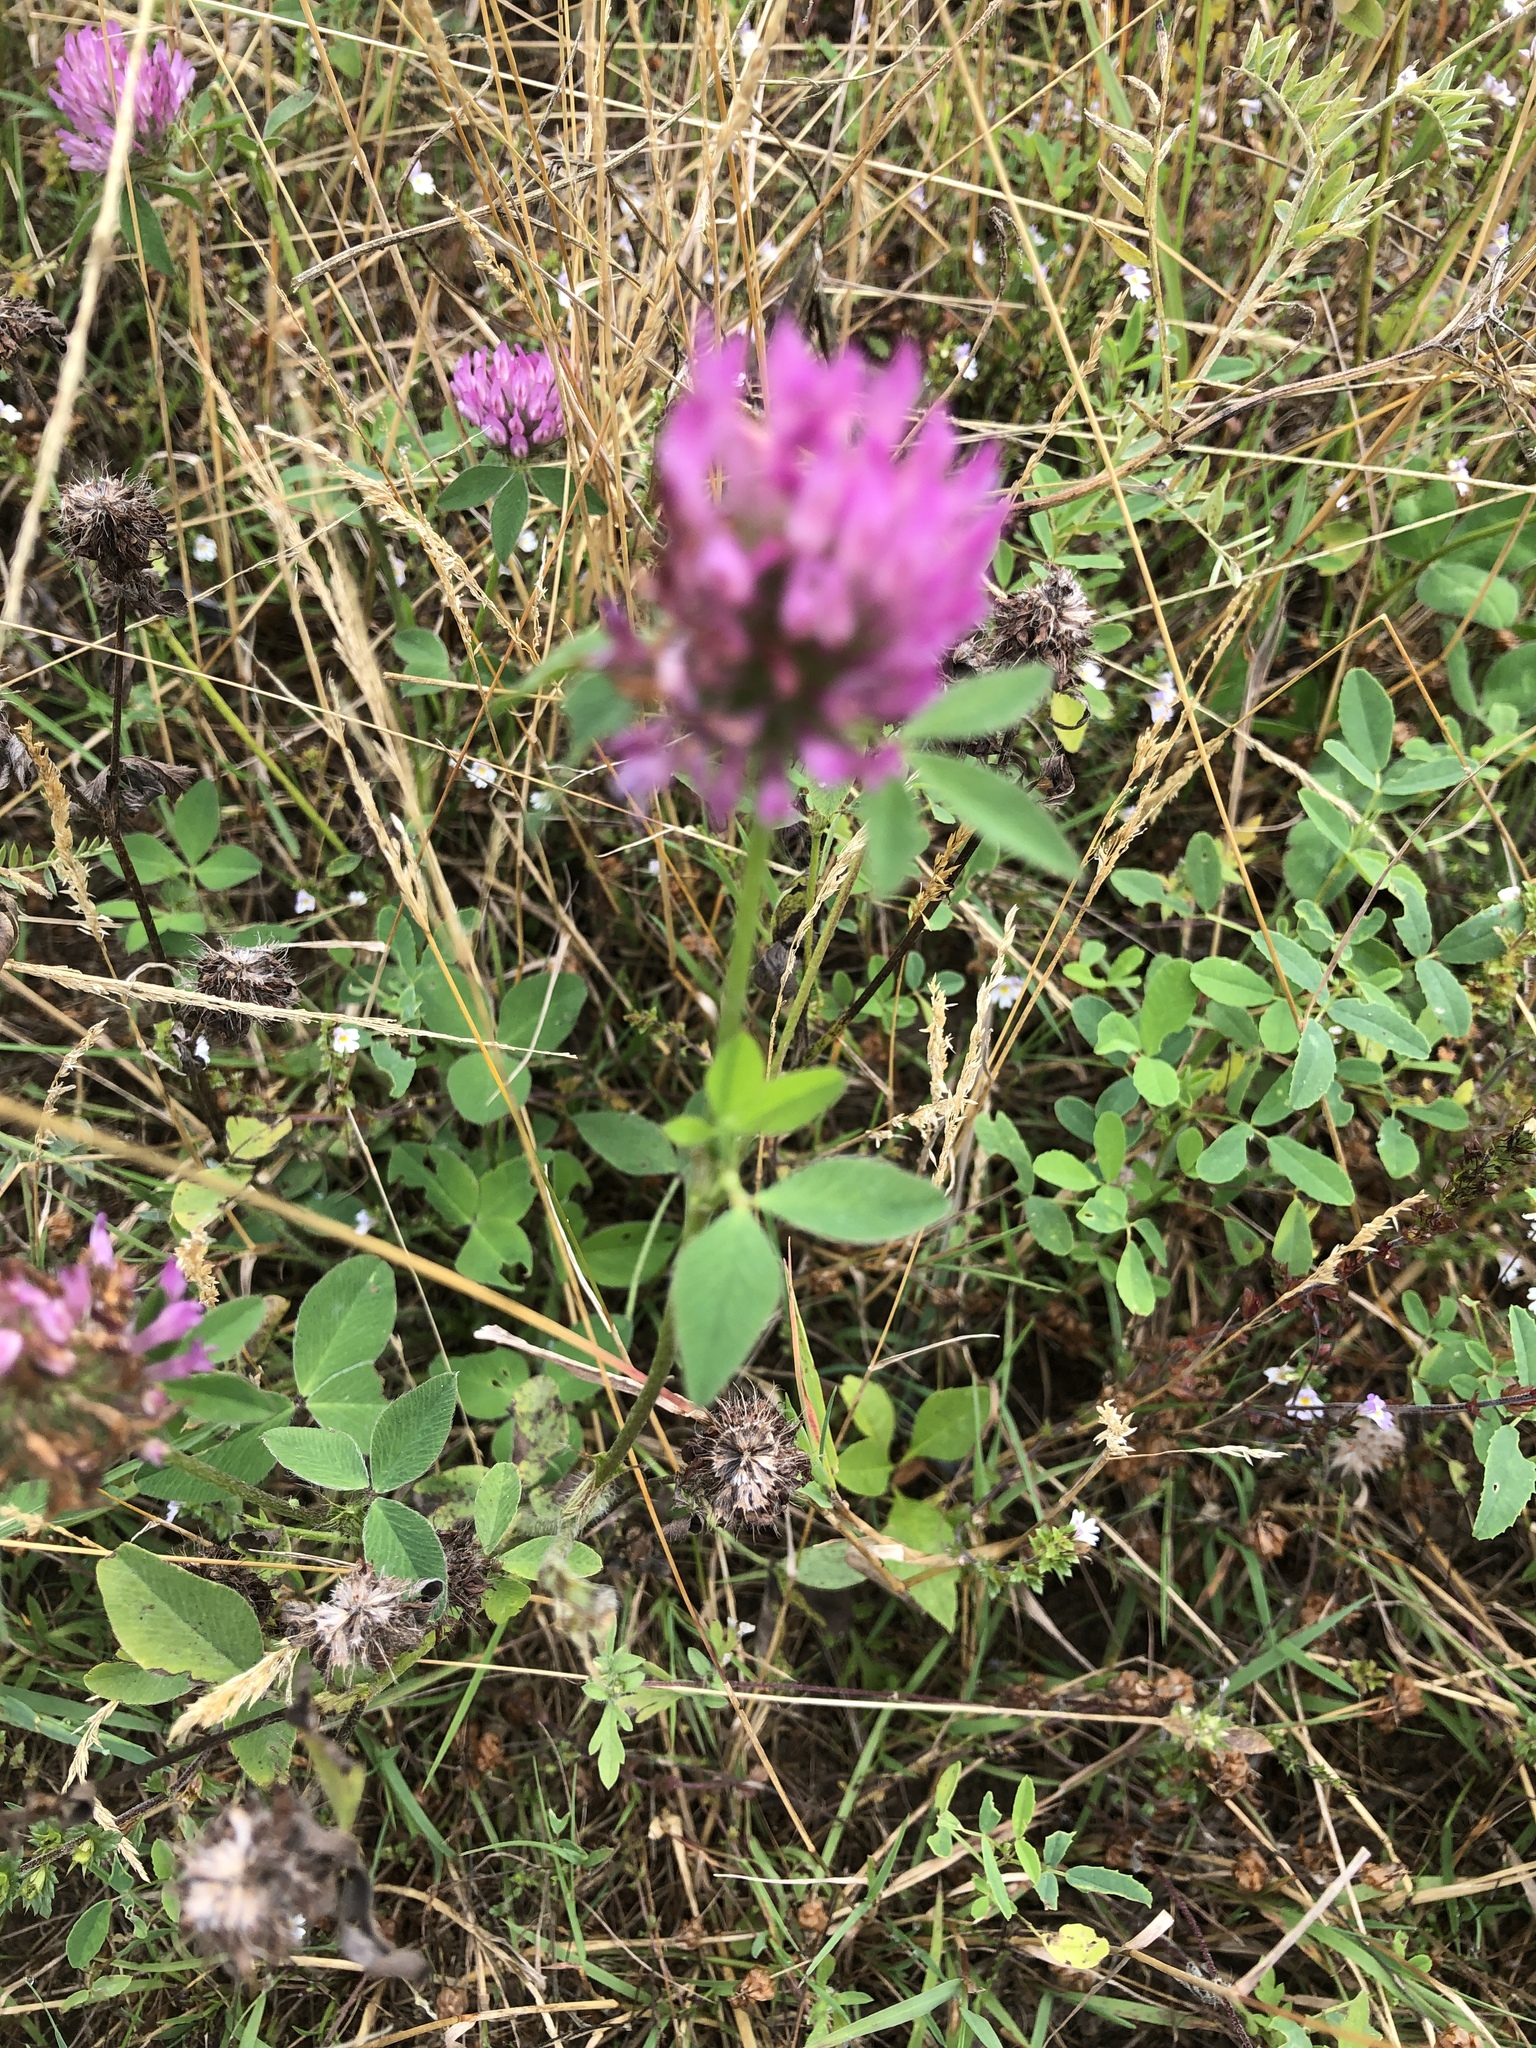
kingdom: Plantae
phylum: Tracheophyta
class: Magnoliopsida
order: Fabales
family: Fabaceae
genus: Trifolium
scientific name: Trifolium pratense
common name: Red clover
